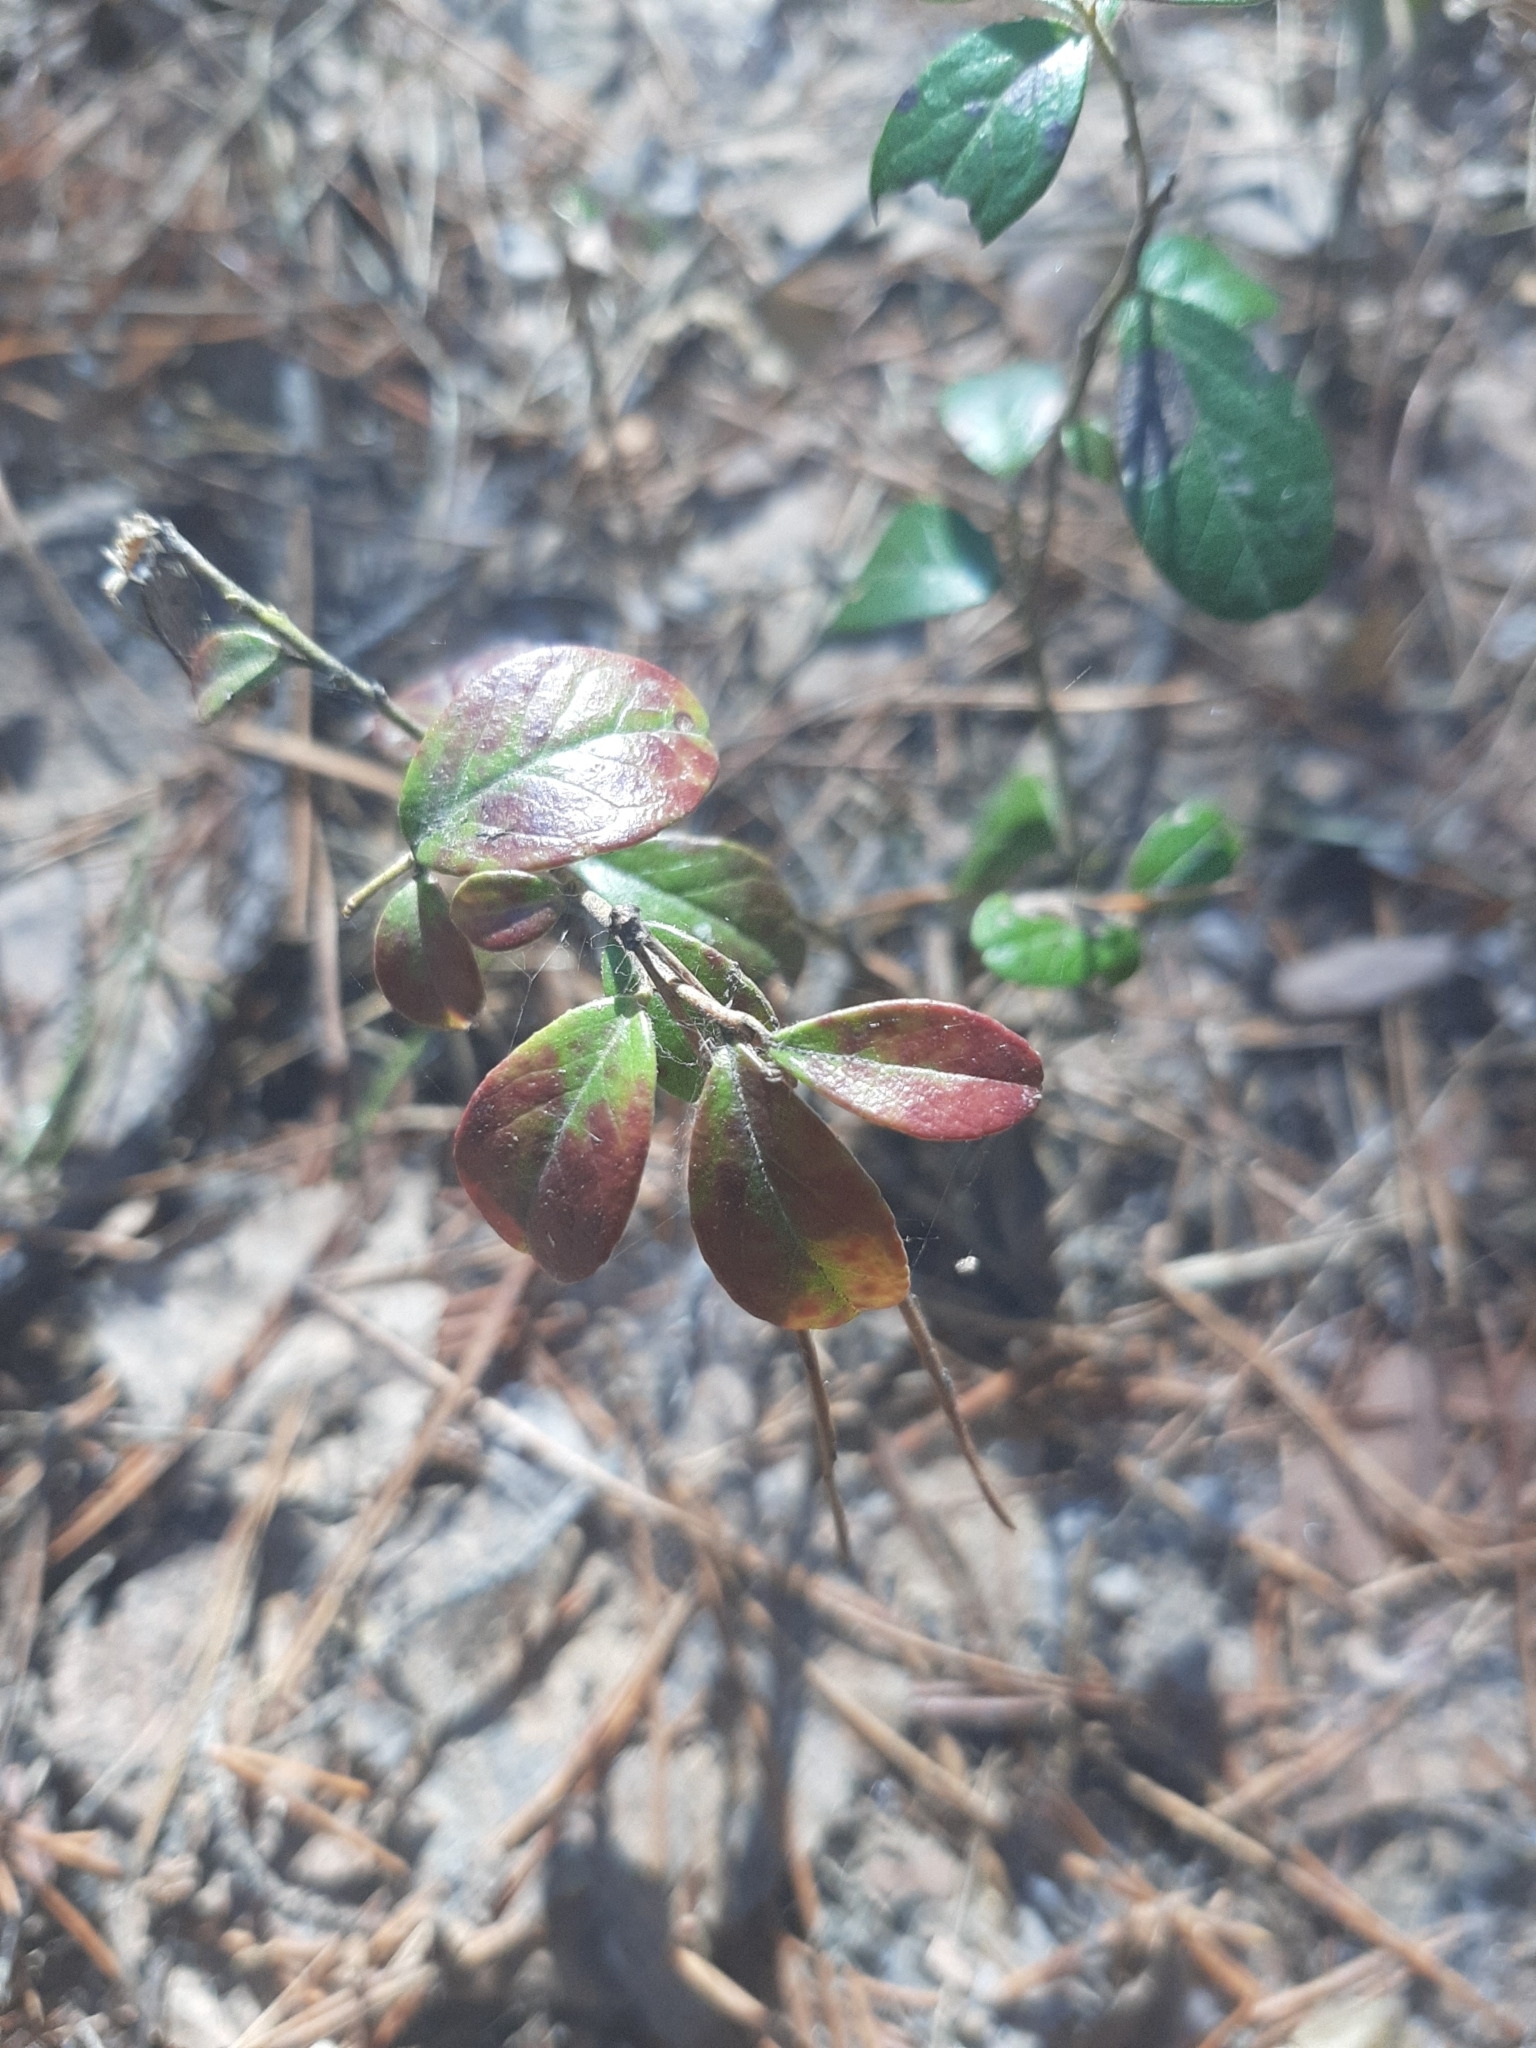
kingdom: Plantae
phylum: Tracheophyta
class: Magnoliopsida
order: Ericales
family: Ericaceae
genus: Vaccinium
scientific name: Vaccinium vitis-idaea
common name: Cowberry
